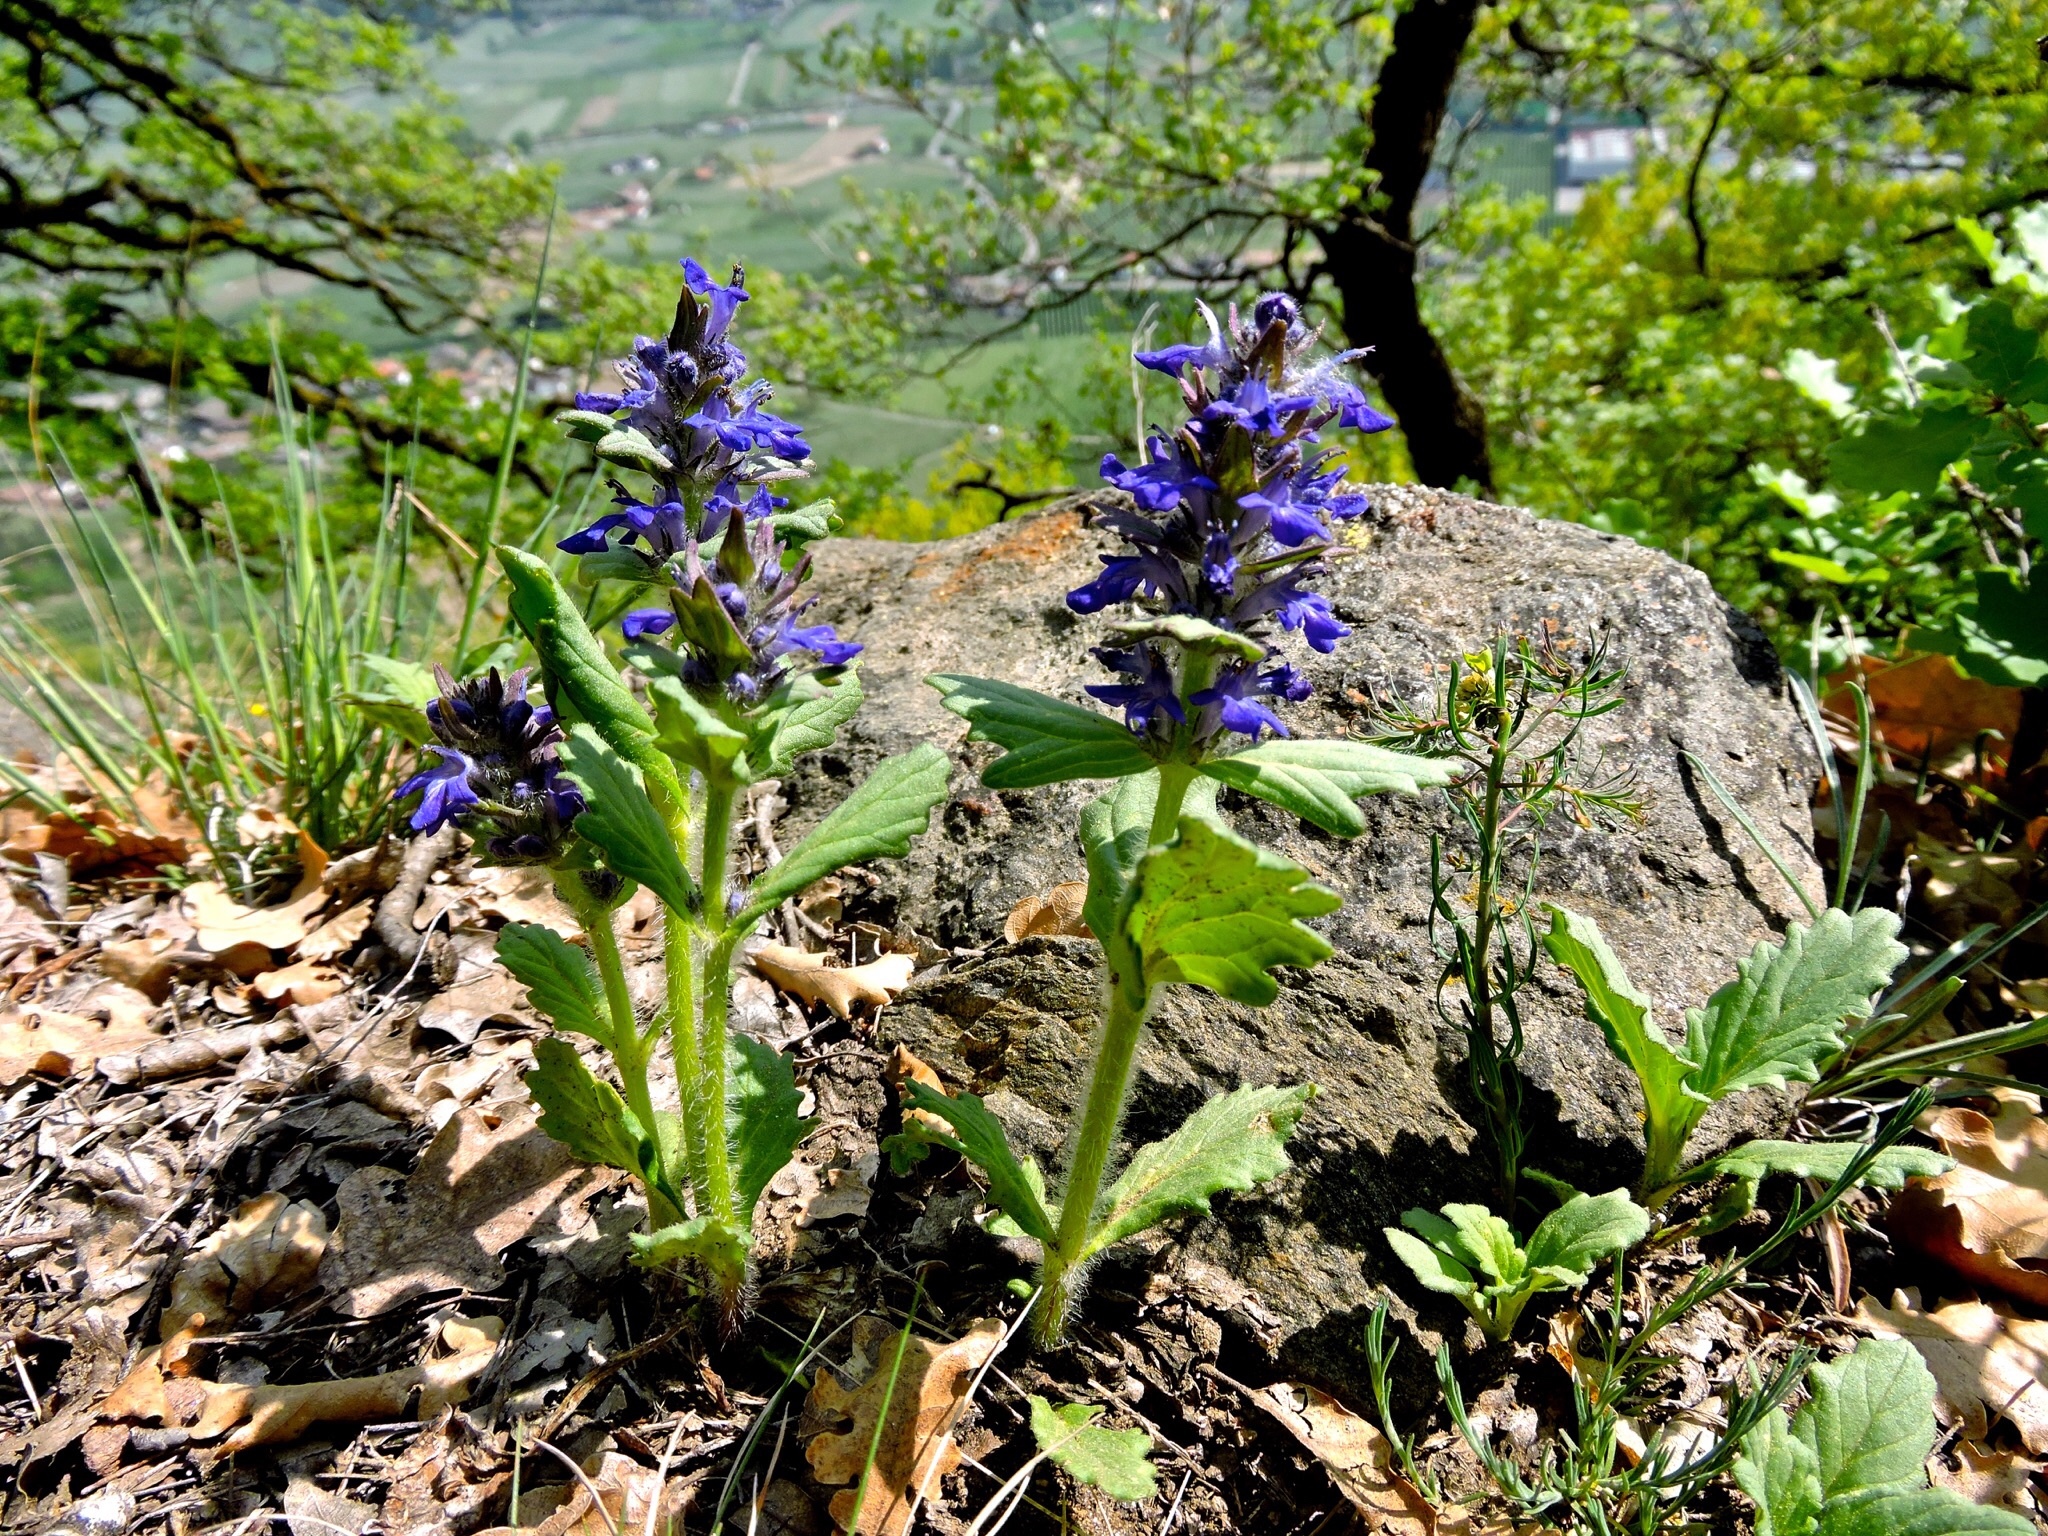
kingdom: Plantae
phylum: Tracheophyta
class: Magnoliopsida
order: Lamiales
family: Lamiaceae
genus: Ajuga
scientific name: Ajuga genevensis
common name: Blue bugle
